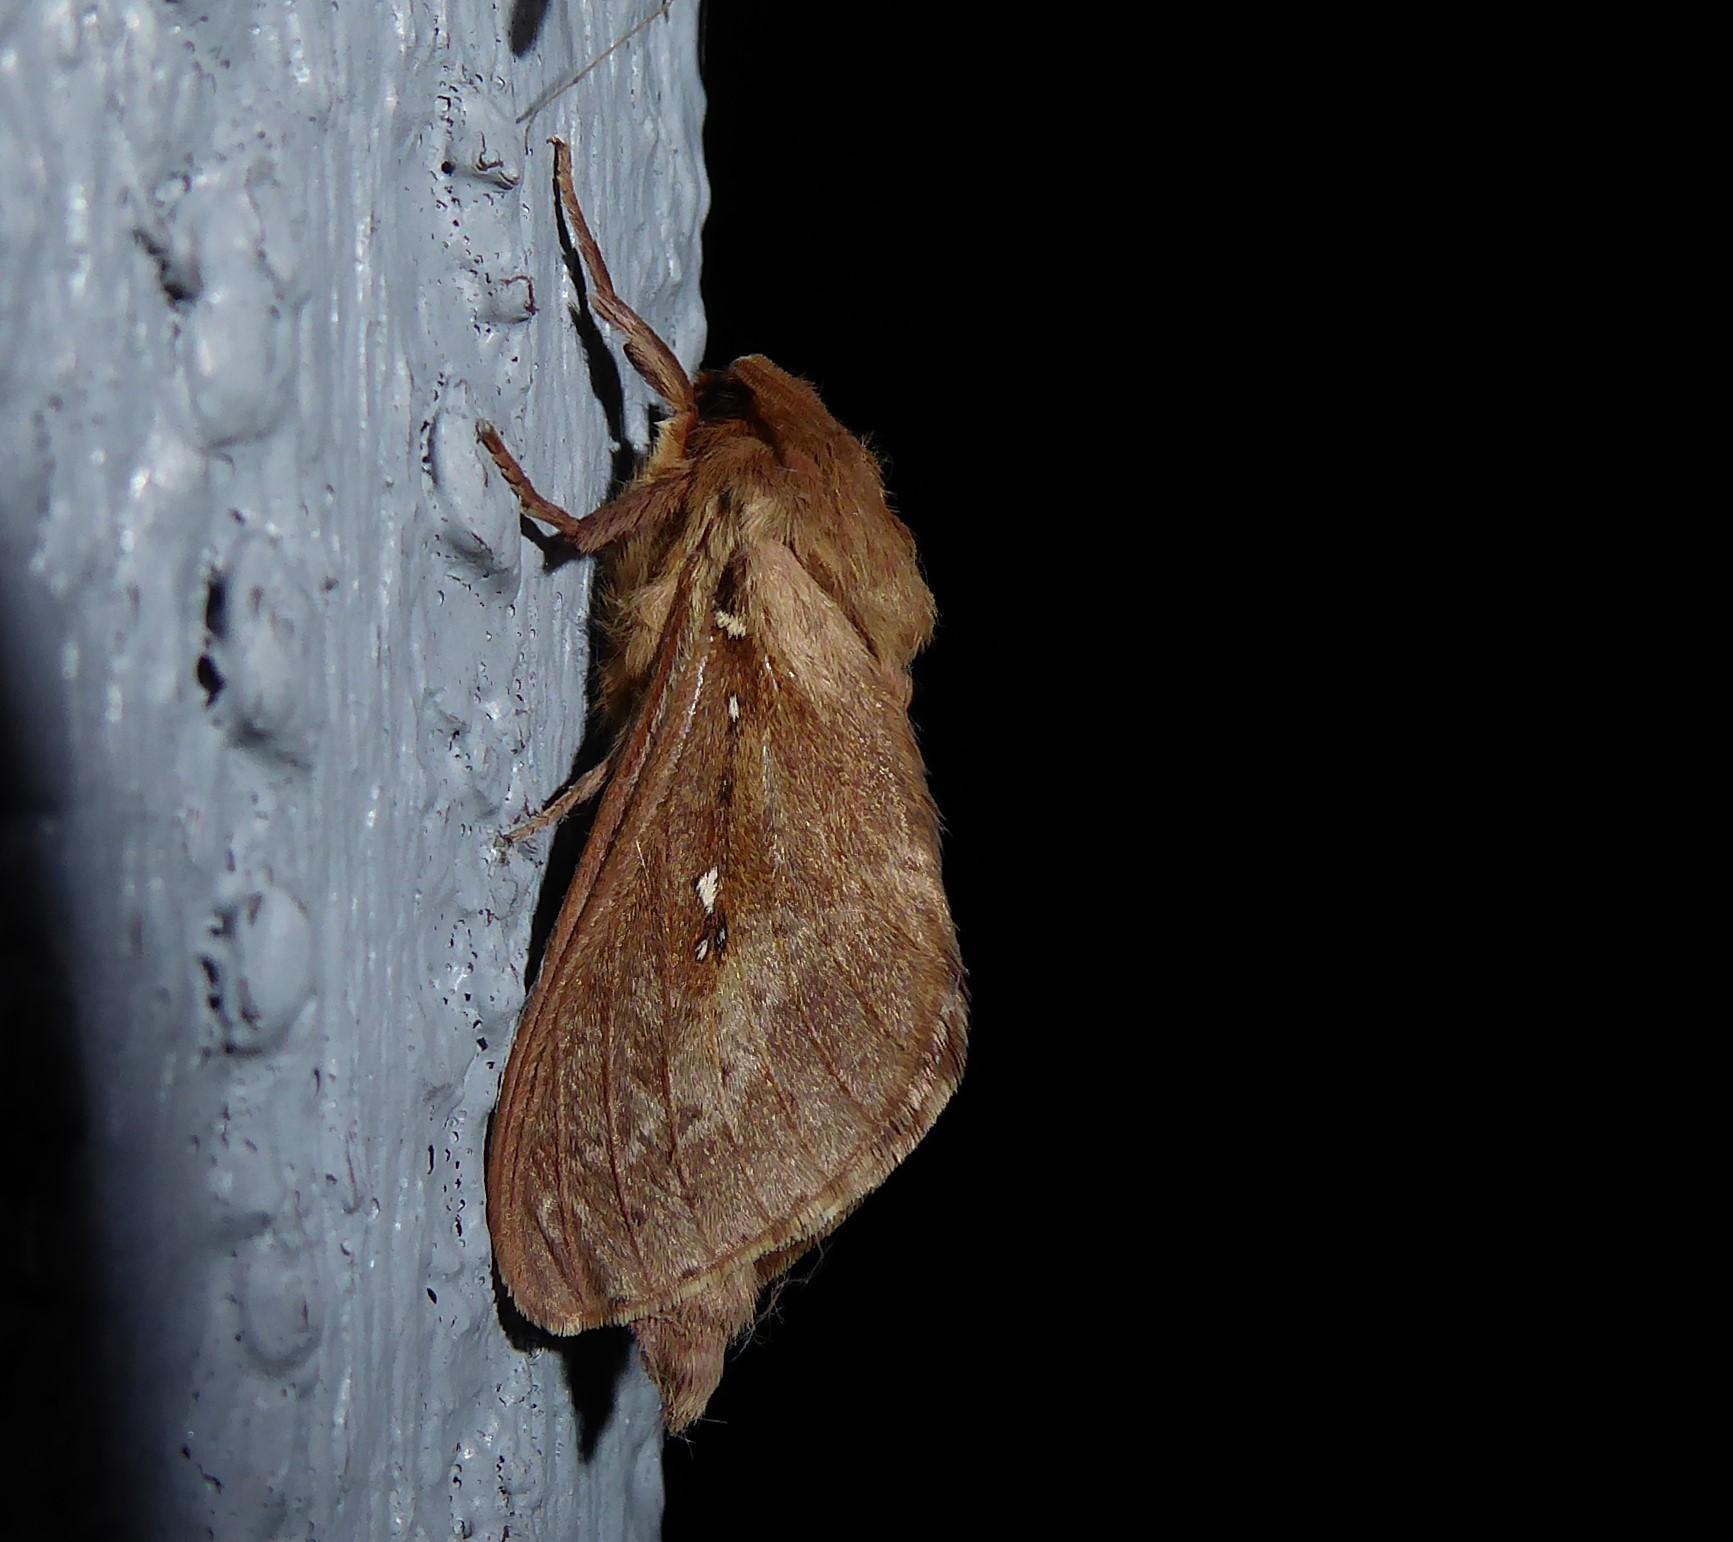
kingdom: Animalia
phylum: Arthropoda
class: Insecta
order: Lepidoptera
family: Hepialidae
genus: Wiseana
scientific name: Wiseana copularis
